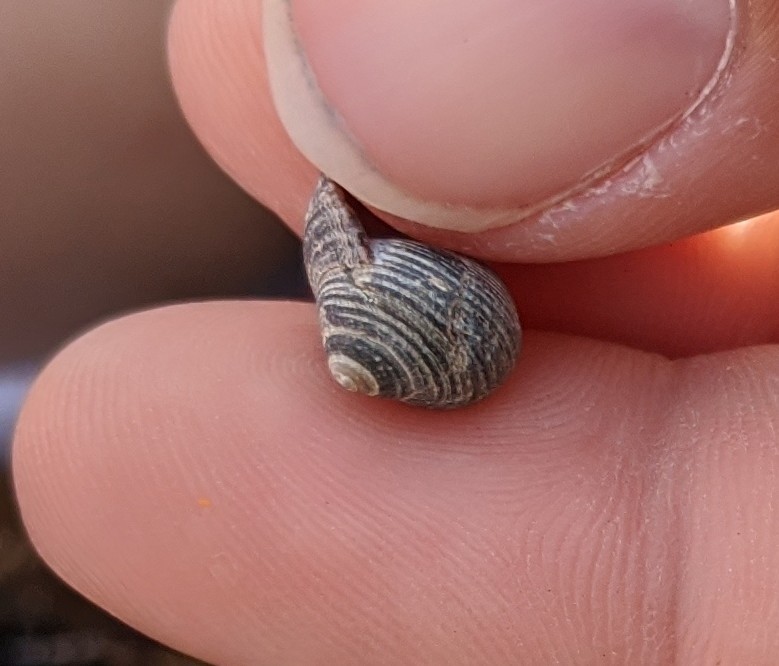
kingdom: Animalia
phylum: Mollusca
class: Gastropoda
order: Littorinimorpha
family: Littorinidae
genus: Littorina
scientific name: Littorina littorea
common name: Common periwinkle
